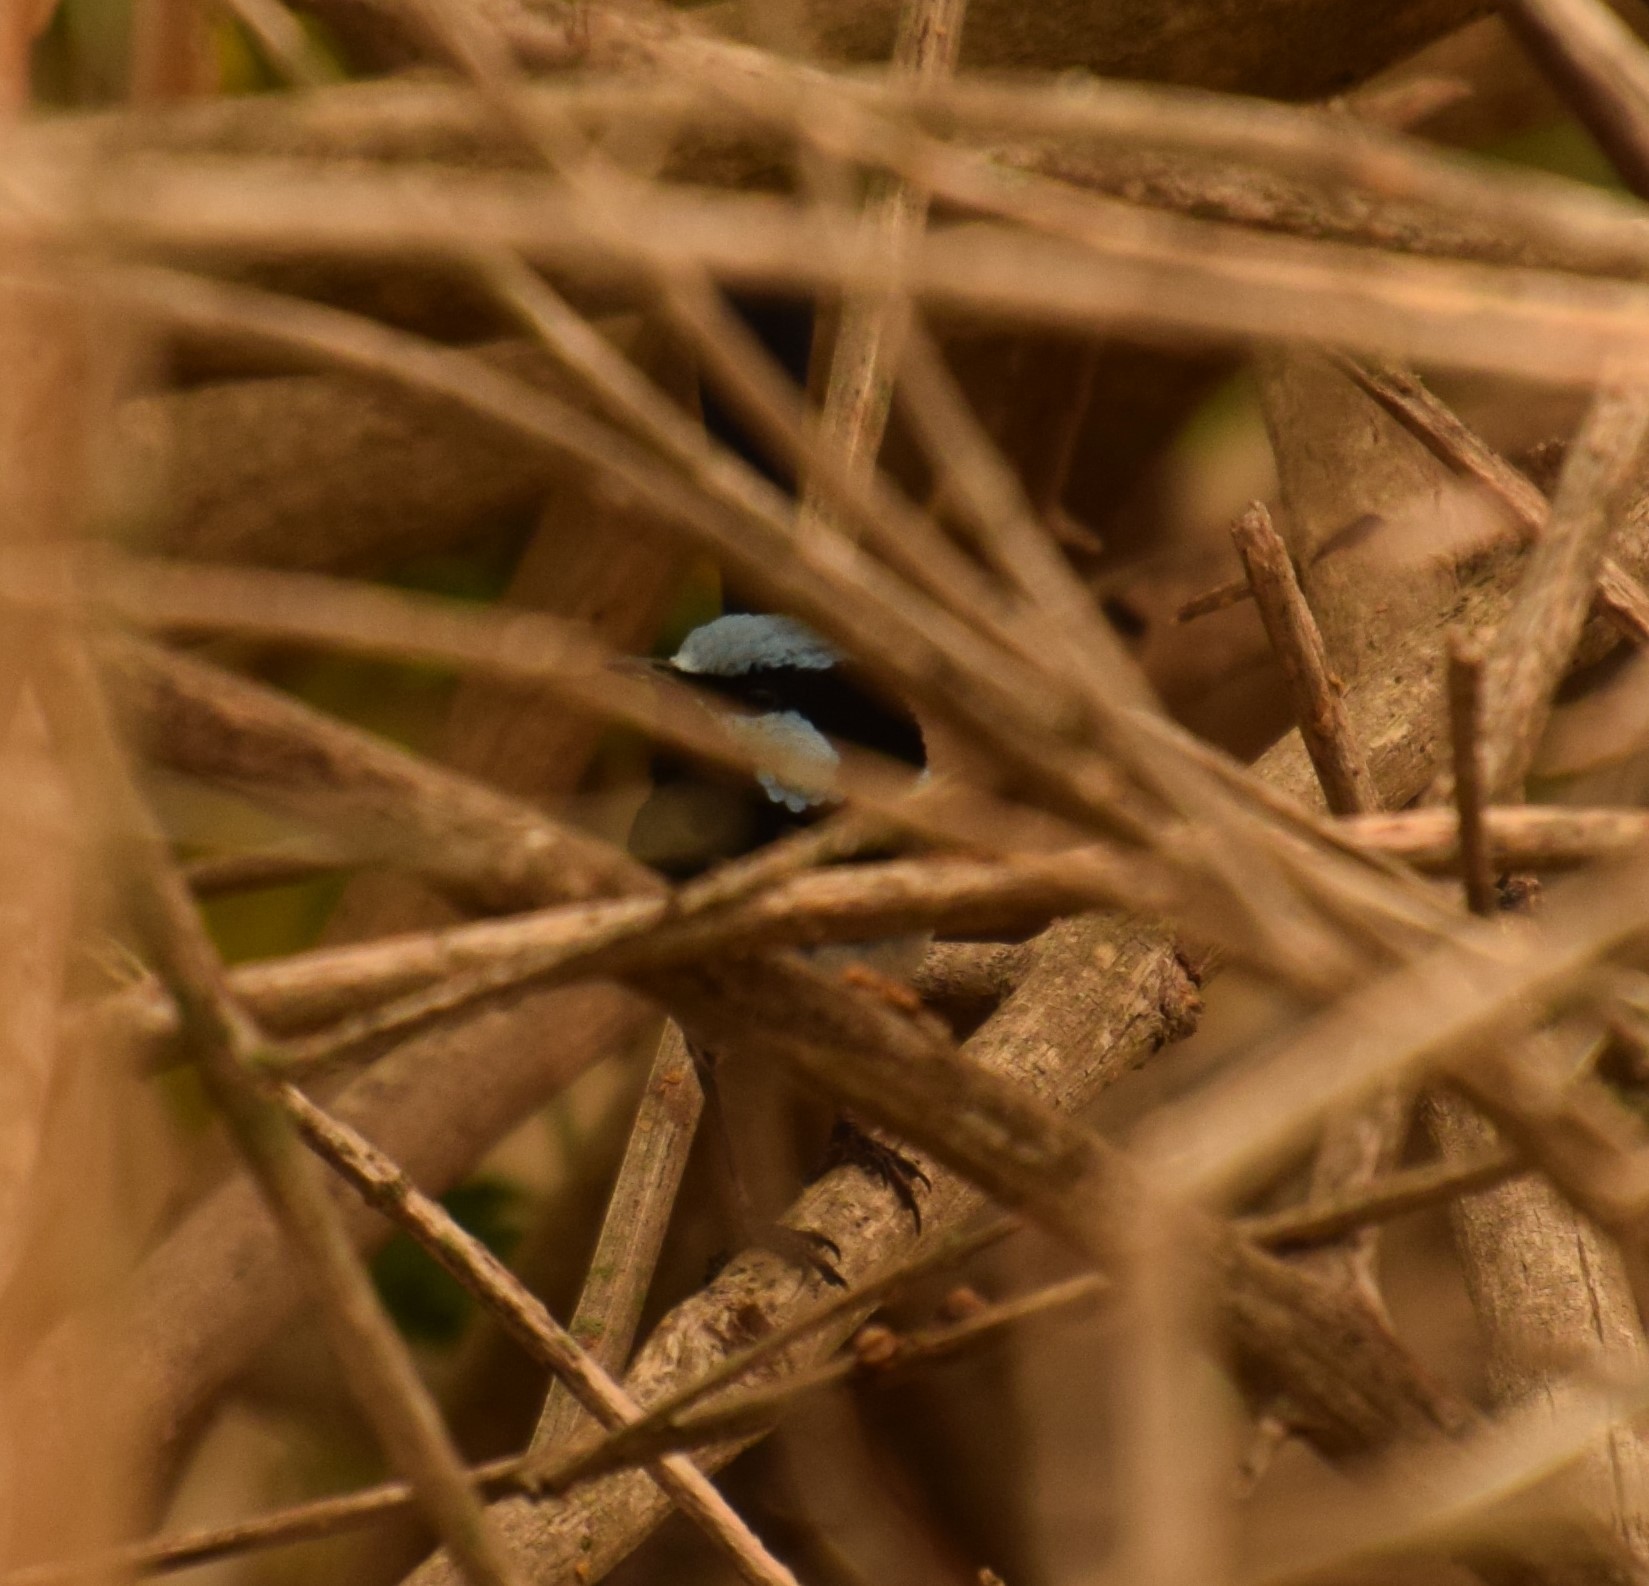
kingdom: Animalia
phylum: Chordata
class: Aves
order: Passeriformes
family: Maluridae
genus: Malurus
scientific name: Malurus cyaneus
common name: Superb fairywren
